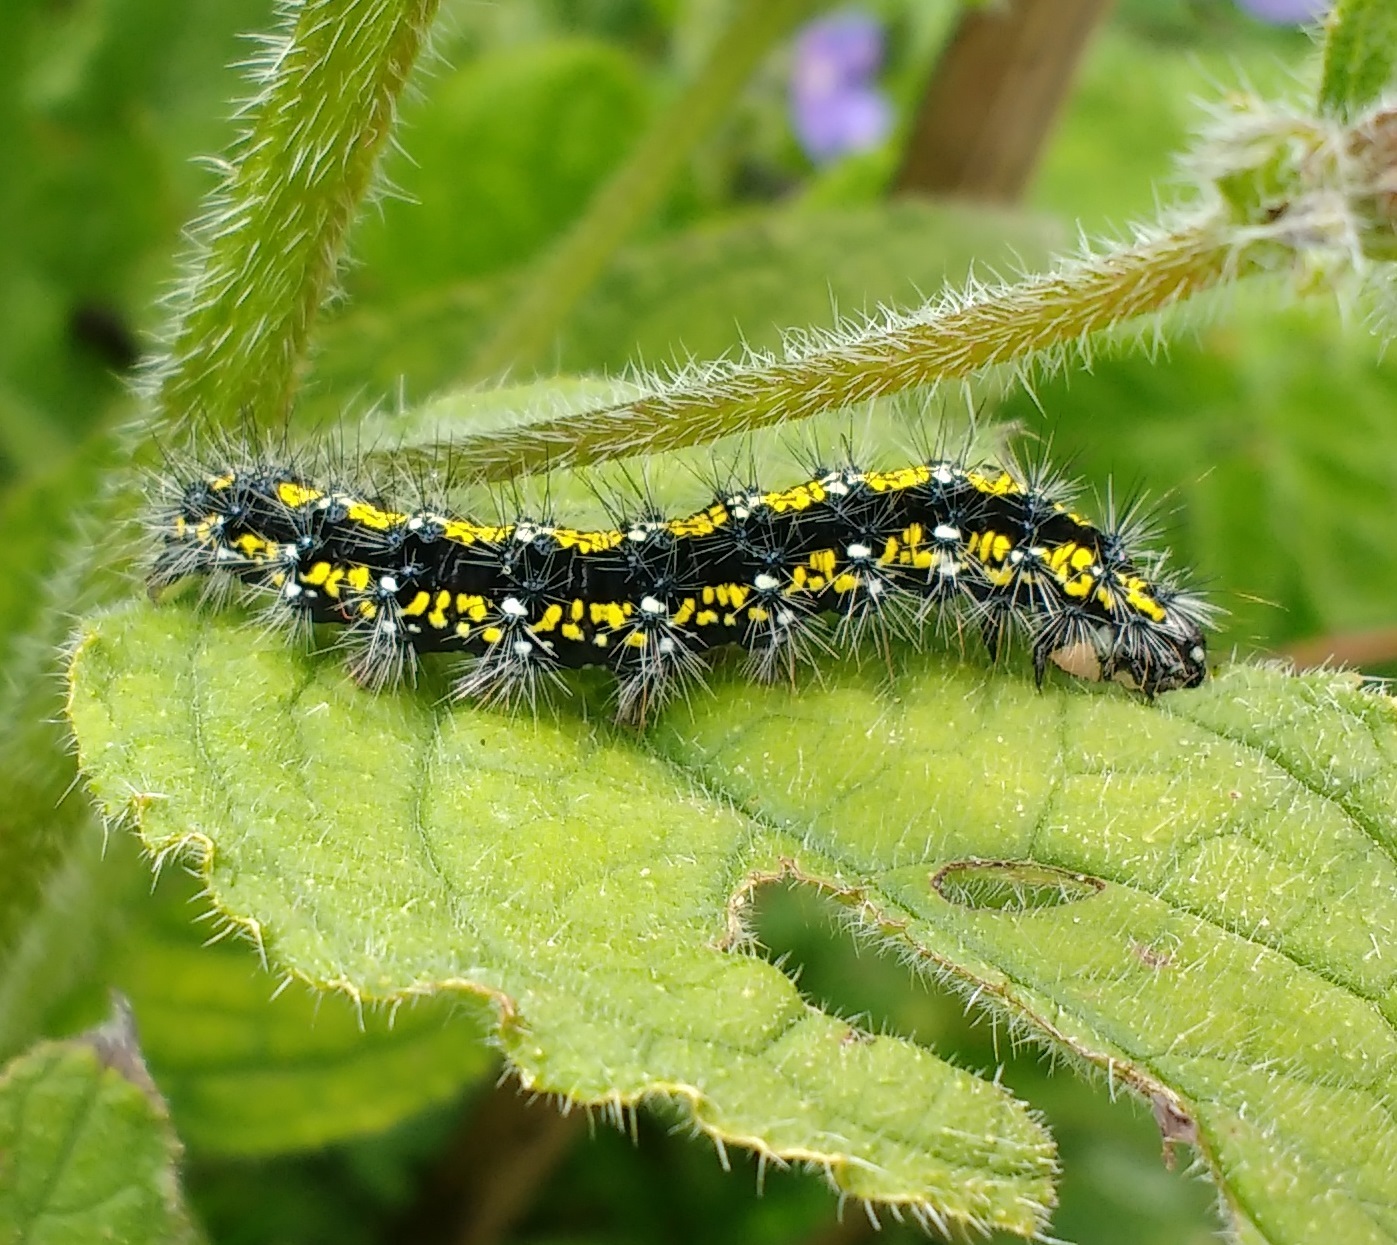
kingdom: Animalia
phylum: Arthropoda
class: Insecta
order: Lepidoptera
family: Erebidae
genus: Callimorpha
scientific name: Callimorpha dominula
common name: Scarlet tiger
